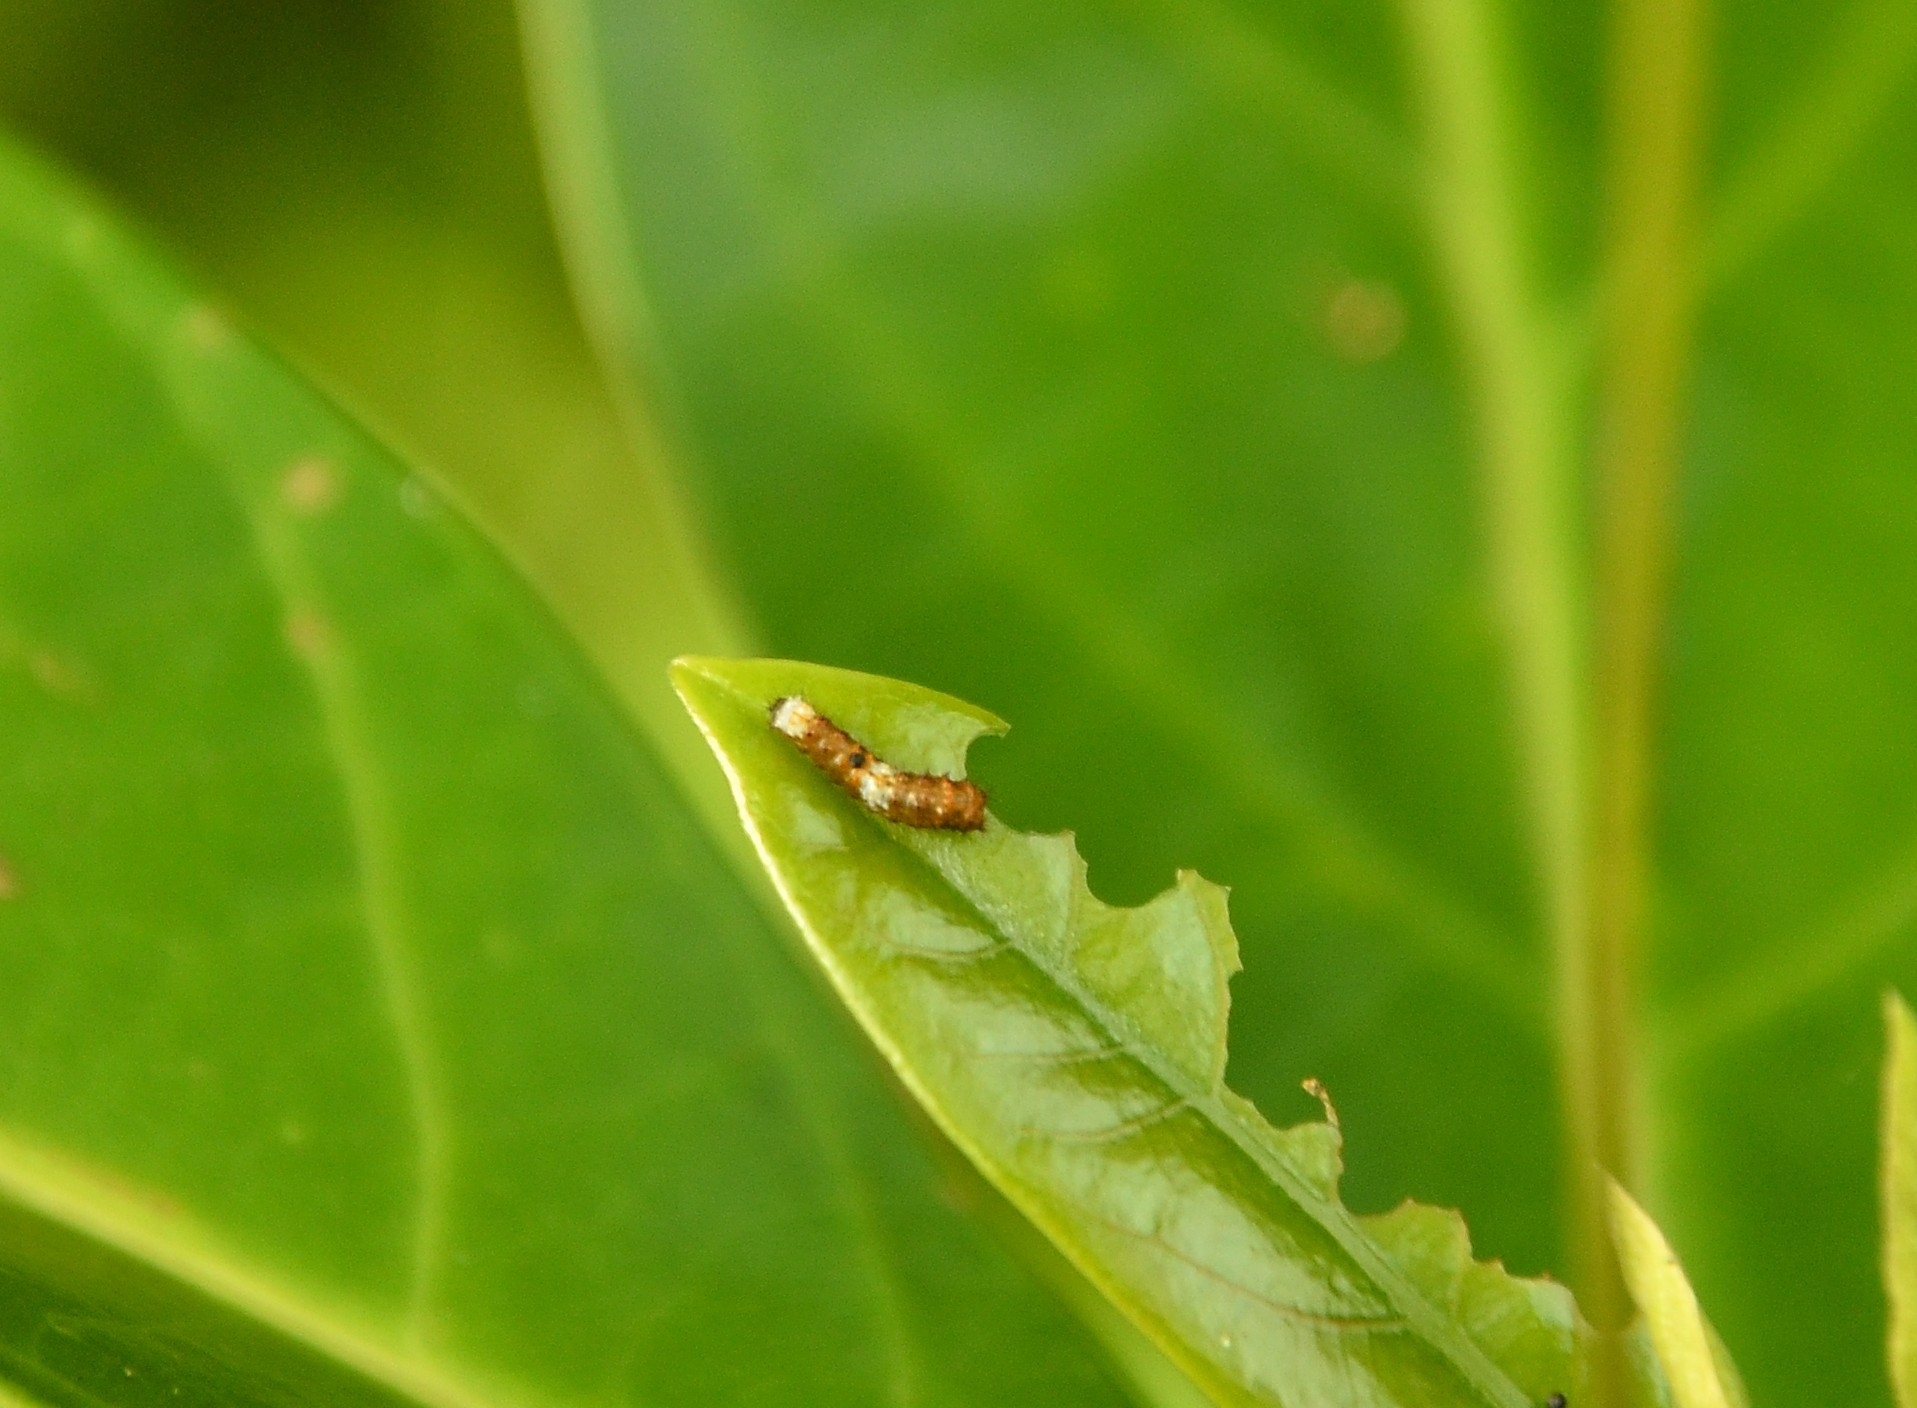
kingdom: Animalia
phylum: Arthropoda
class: Insecta
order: Lepidoptera
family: Papilionidae
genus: Chilasa
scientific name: Chilasa clytia
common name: Common mime
